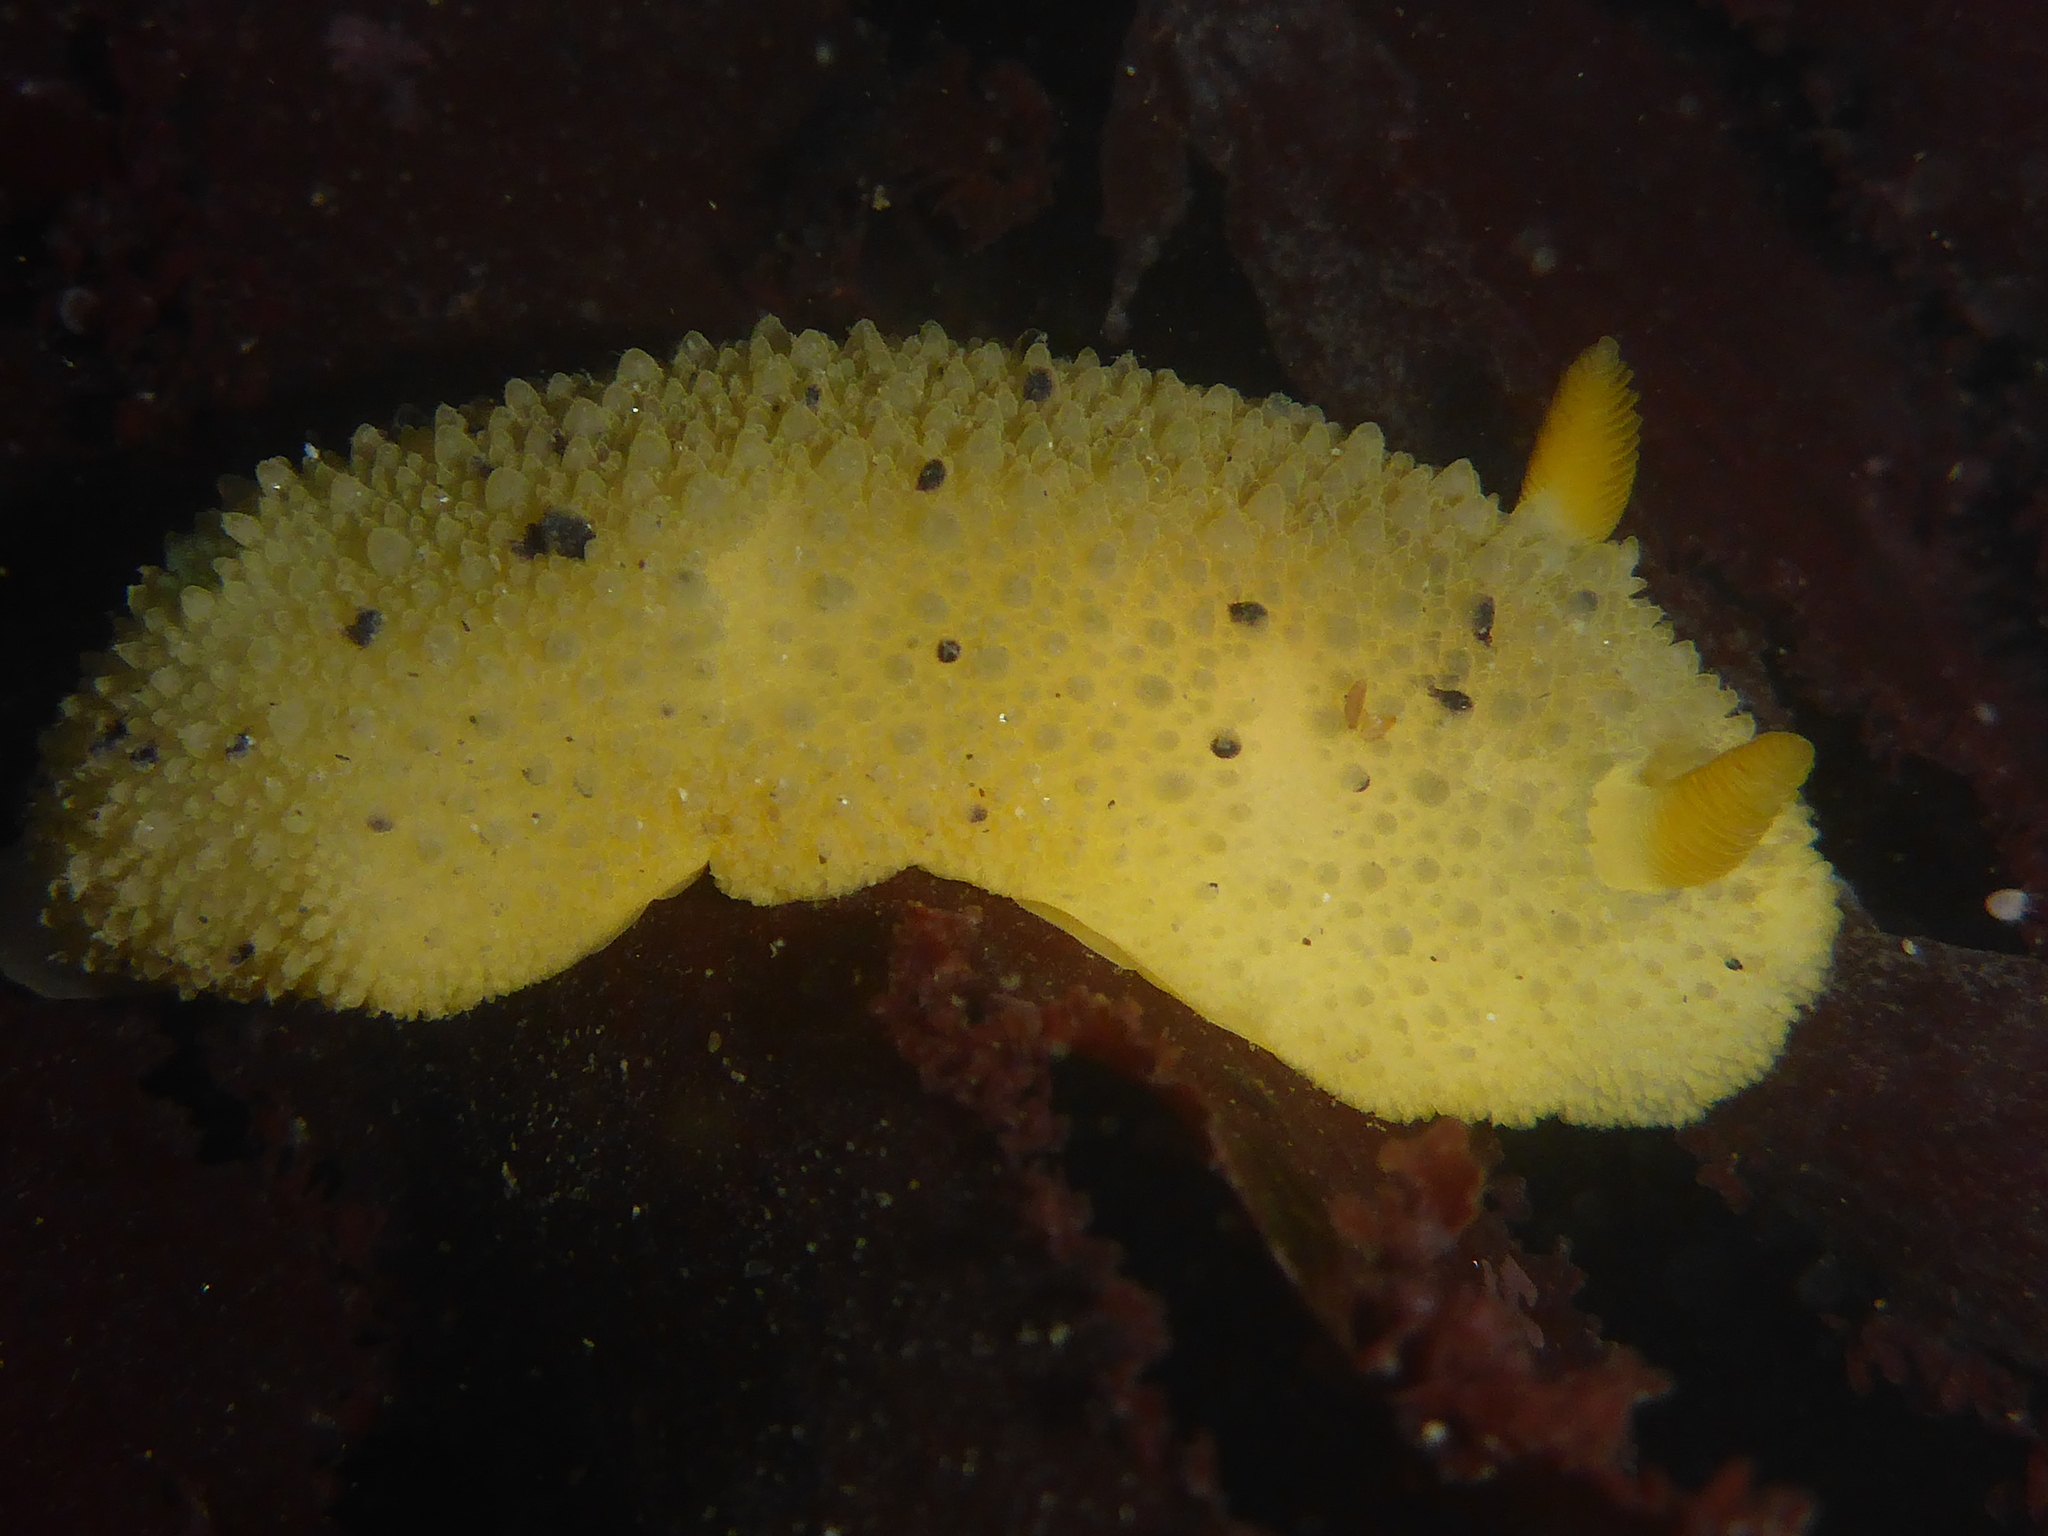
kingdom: Animalia
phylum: Mollusca
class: Gastropoda
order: Nudibranchia
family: Dorididae
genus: Doris
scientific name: Doris montereyensis
